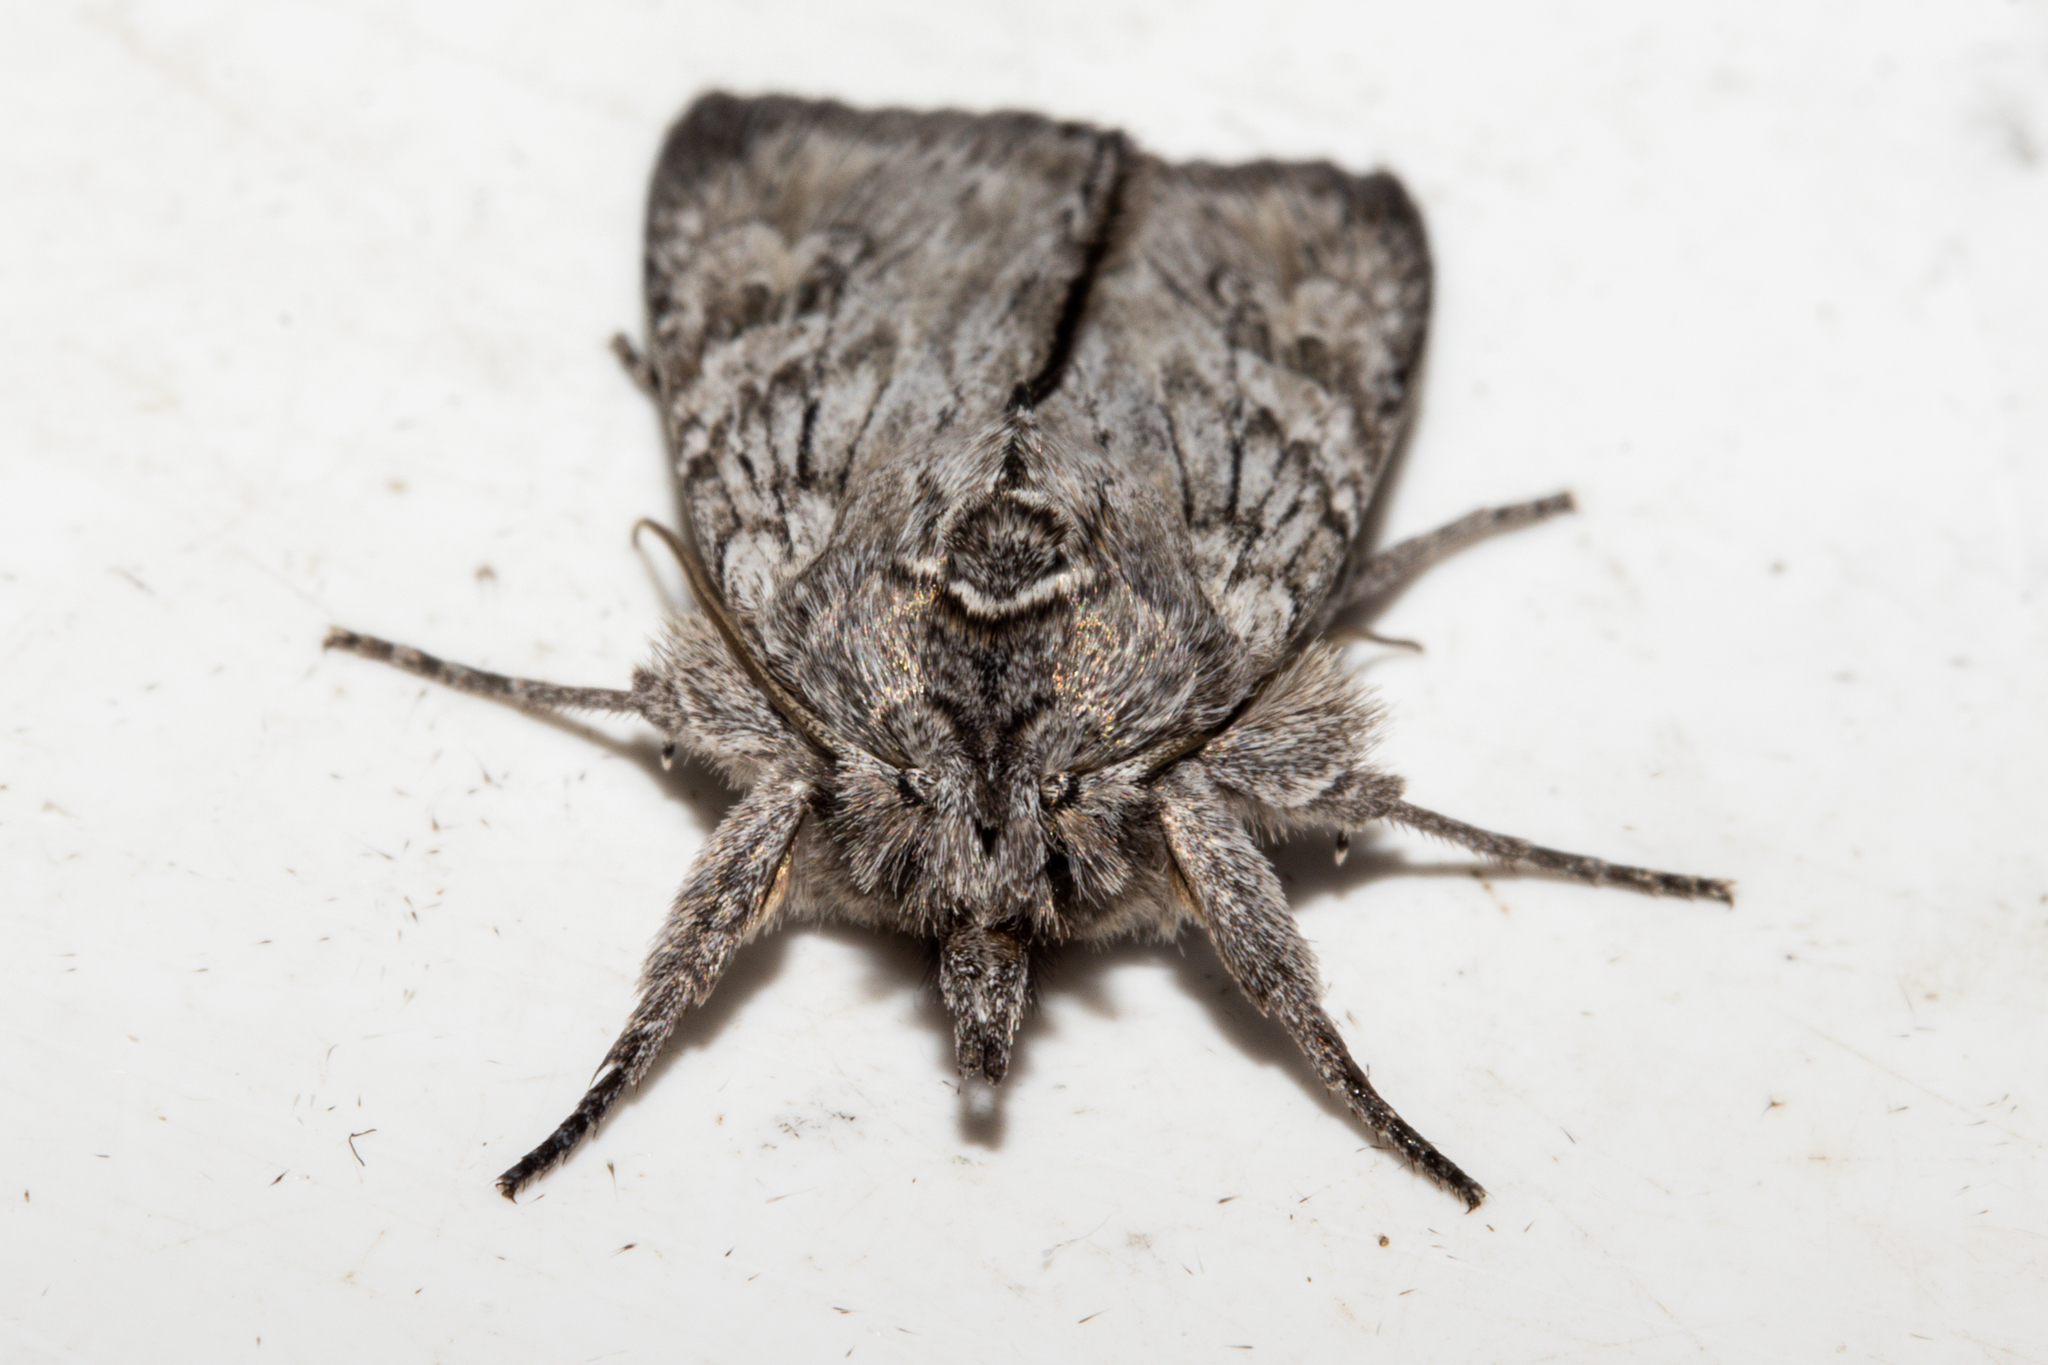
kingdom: Animalia
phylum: Arthropoda
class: Insecta
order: Lepidoptera
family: Noctuidae
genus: Physetica
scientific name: Physetica phricias
